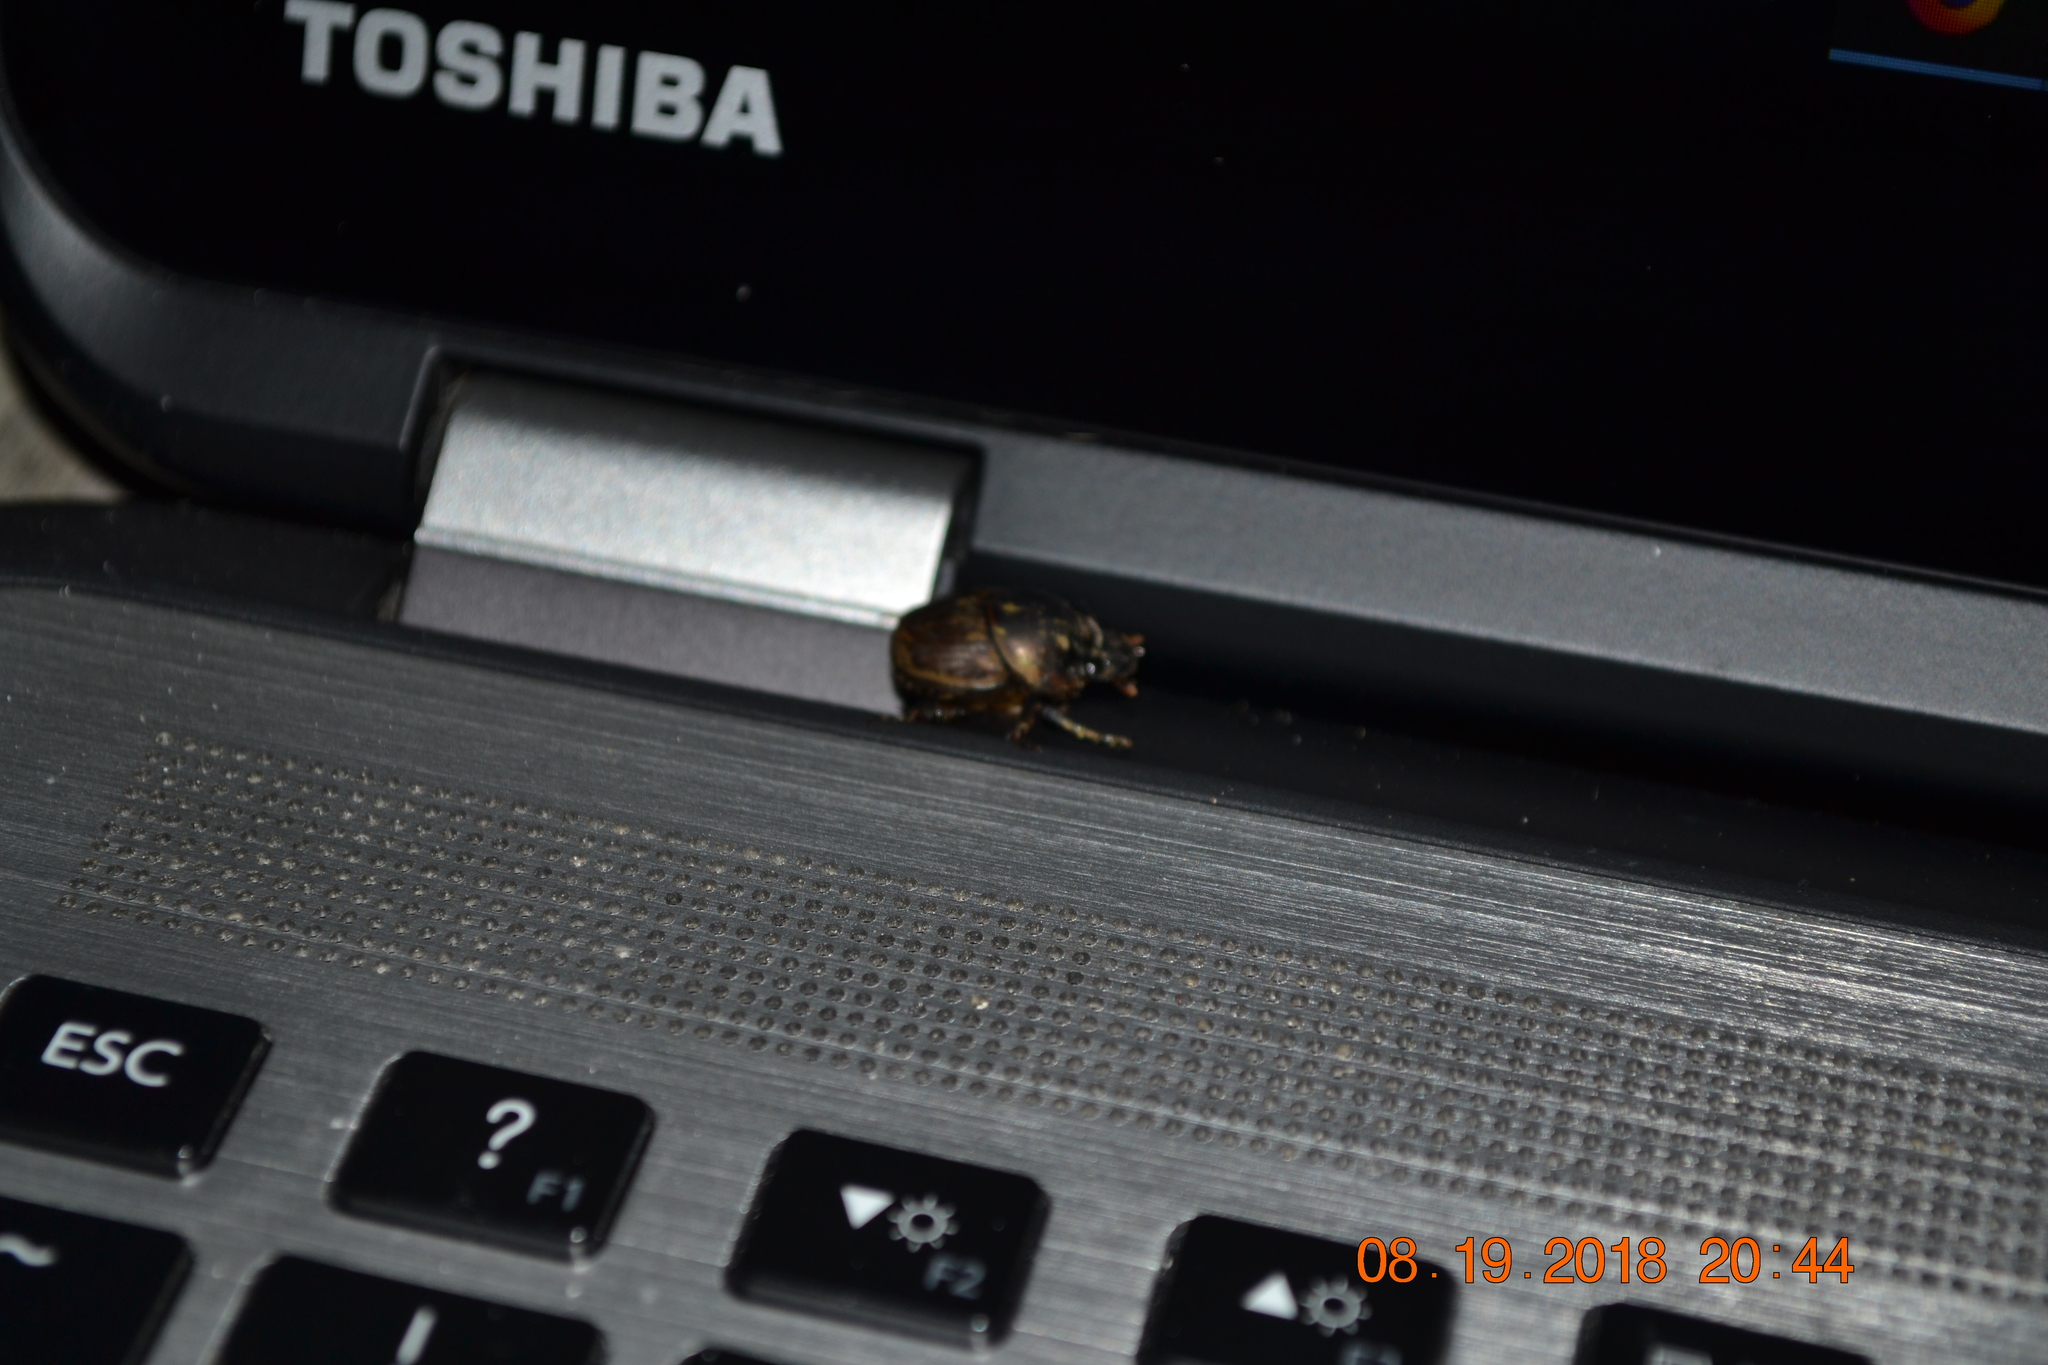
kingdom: Animalia
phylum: Arthropoda
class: Insecta
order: Coleoptera
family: Scarabaeidae
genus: Digitonthophagus
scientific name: Digitonthophagus gazella
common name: Brown dung beetle
